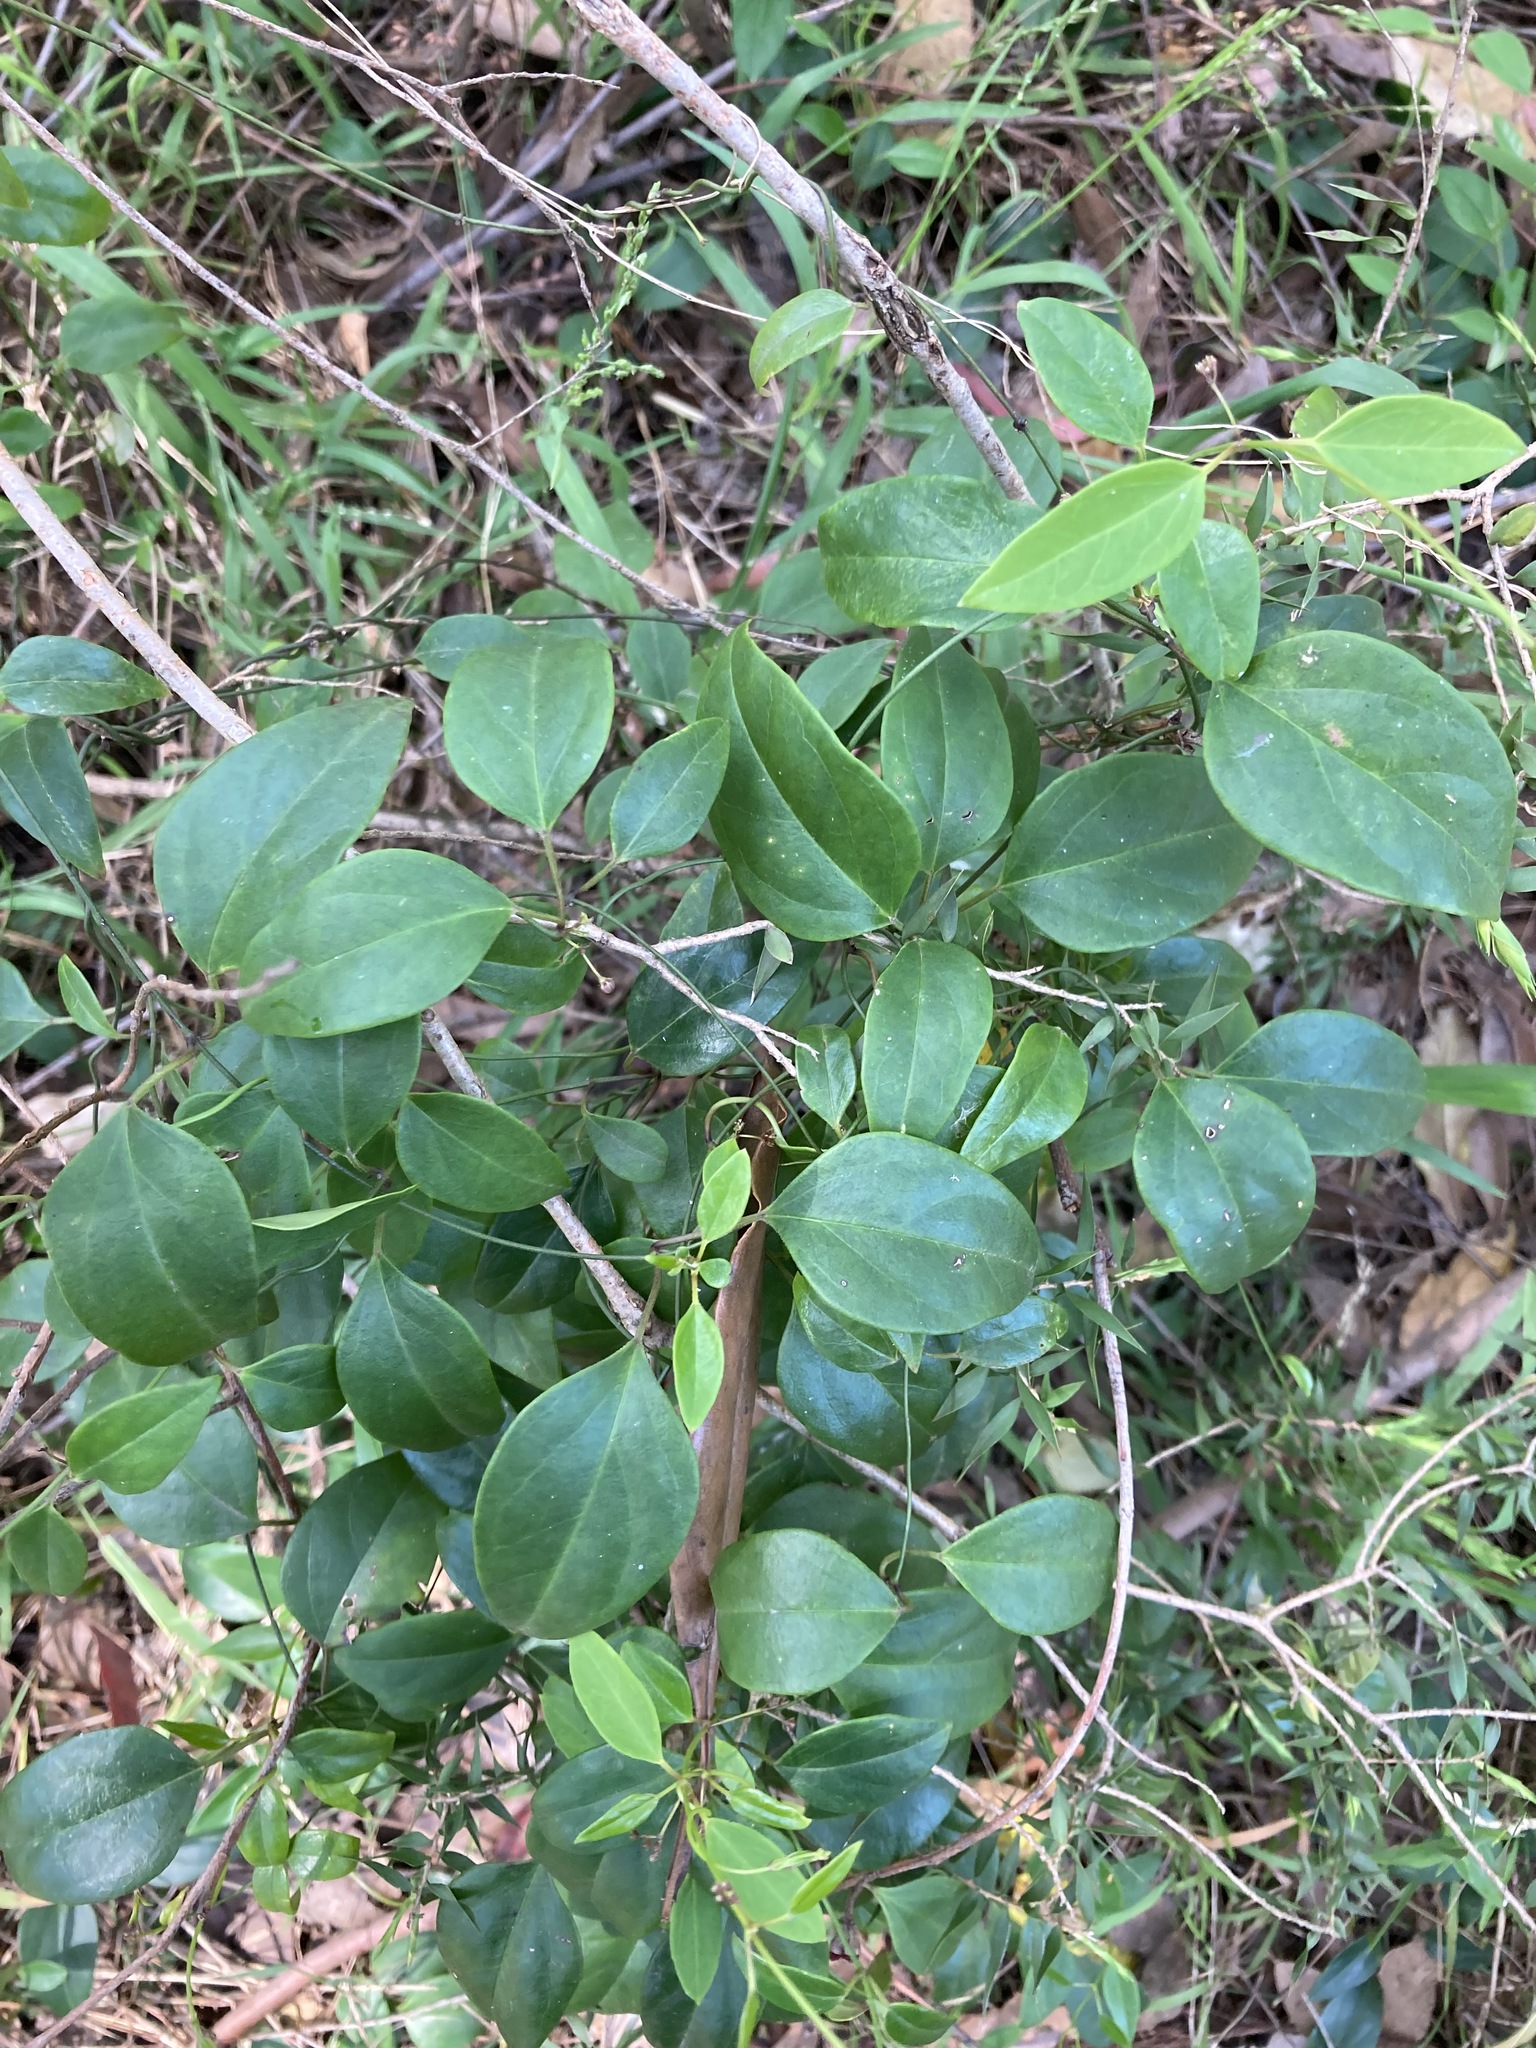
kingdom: Plantae
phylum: Tracheophyta
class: Magnoliopsida
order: Gentianales
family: Apocynaceae
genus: Vincetoxicum
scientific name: Vincetoxicum barbatum
